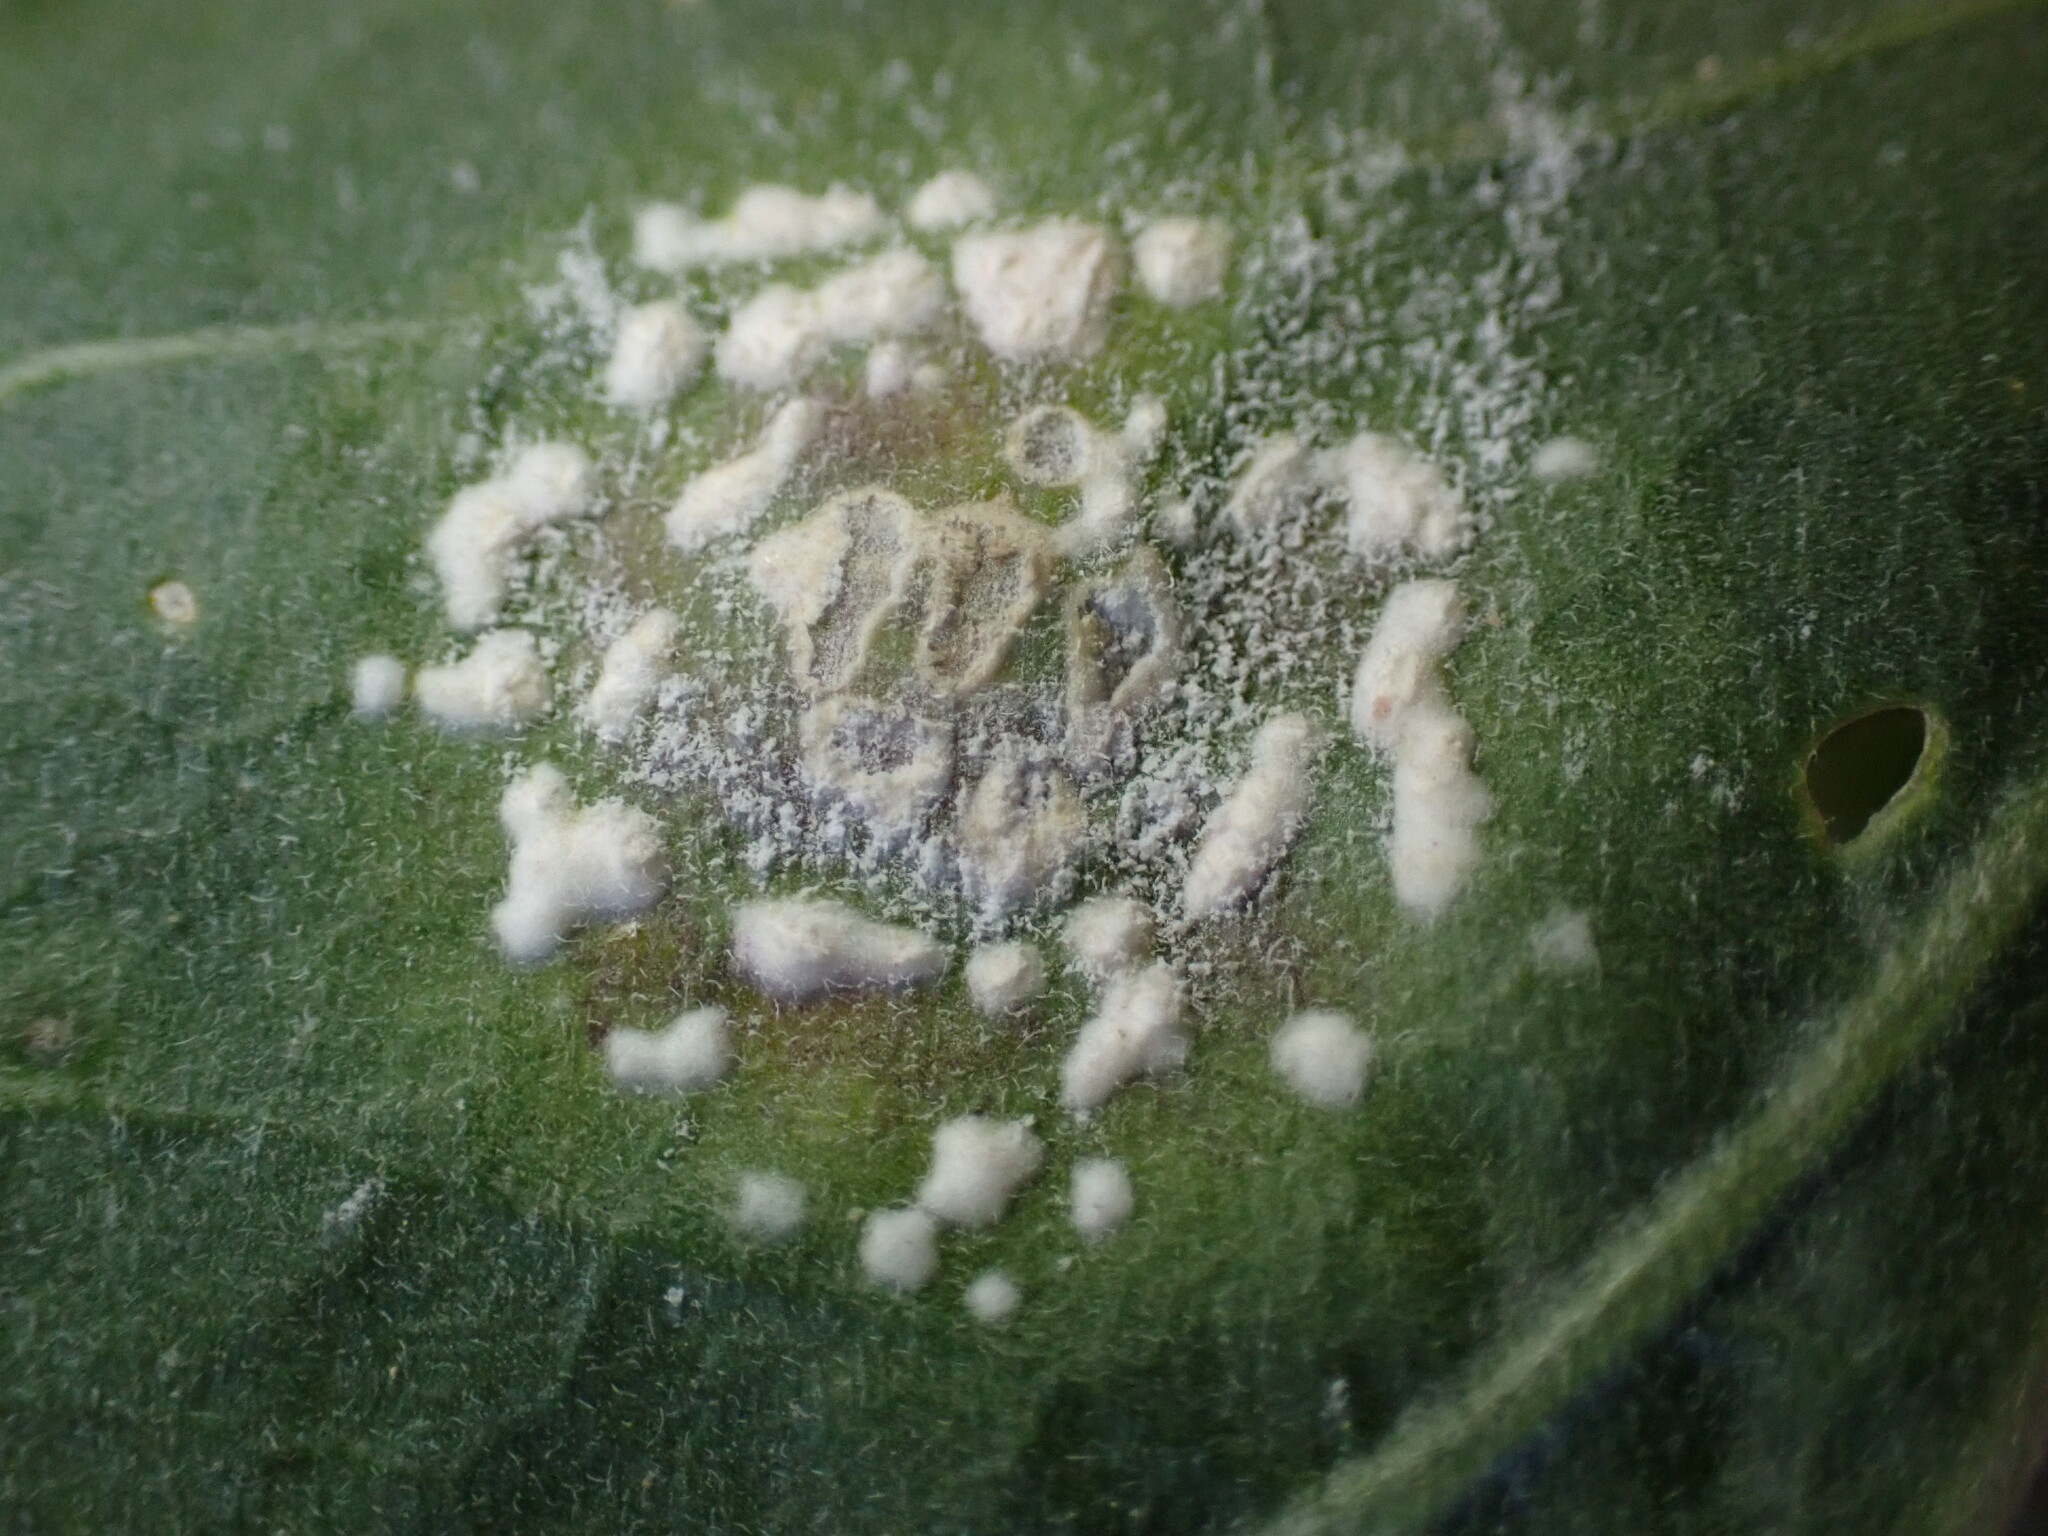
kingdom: Chromista
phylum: Oomycota
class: Peronosporea
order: Albuginales
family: Albuginaceae
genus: Albugo
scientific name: Albugo lepidii
